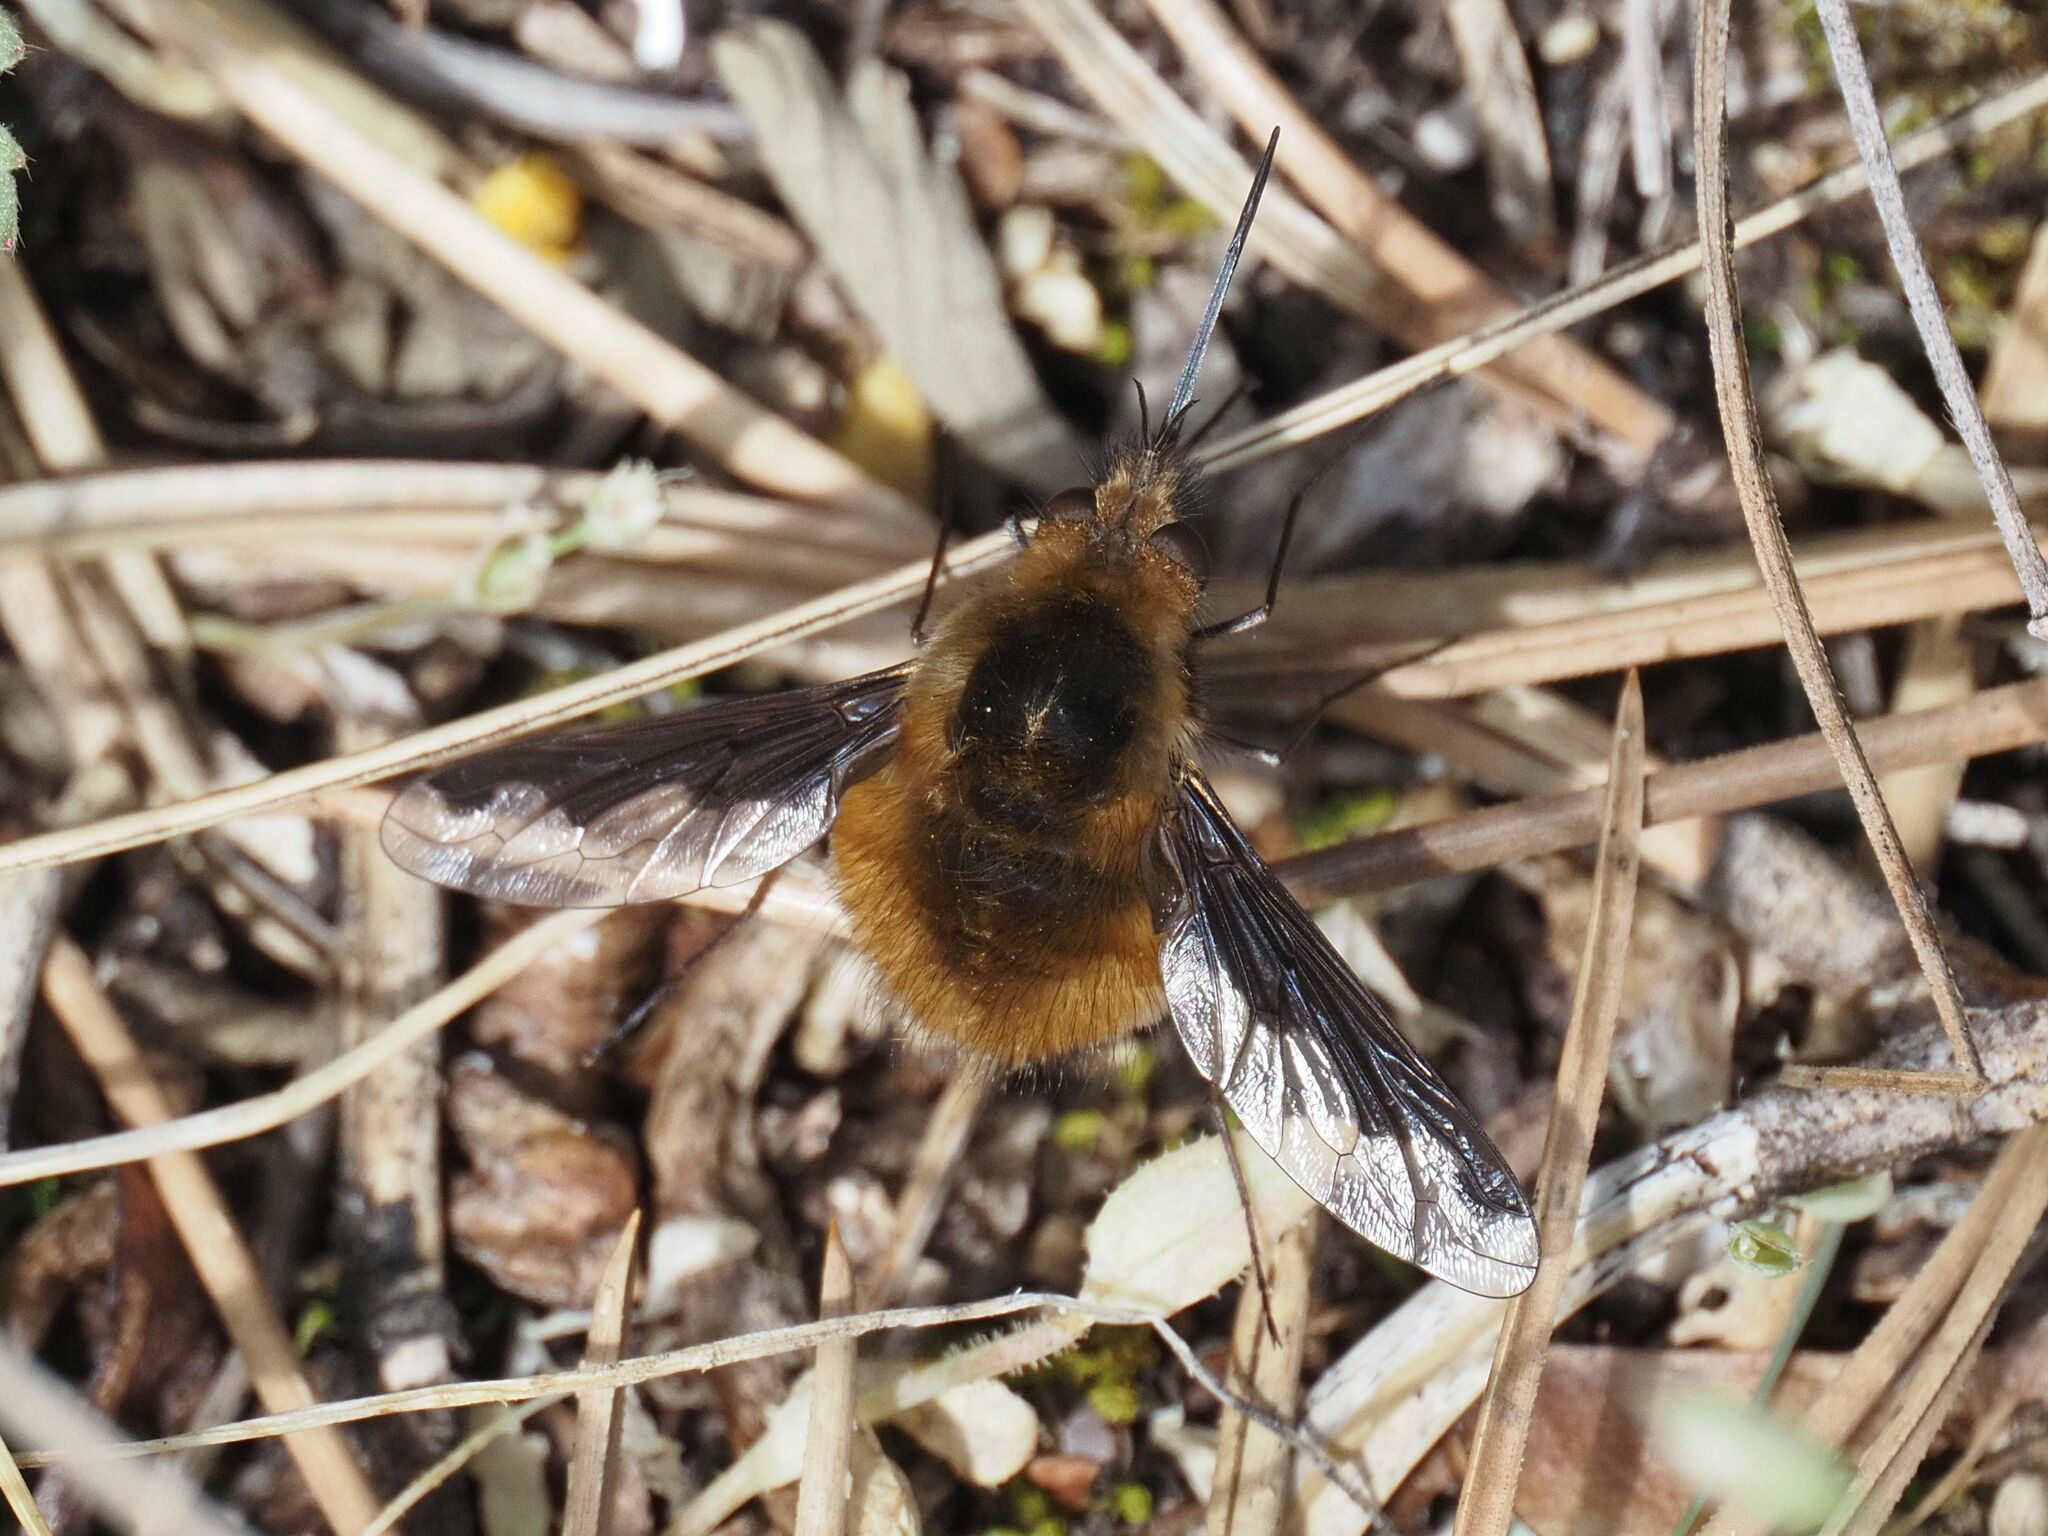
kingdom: Animalia
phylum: Arthropoda
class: Insecta
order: Diptera
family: Bombyliidae
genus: Bombylius
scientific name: Bombylius major
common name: Bee fly
